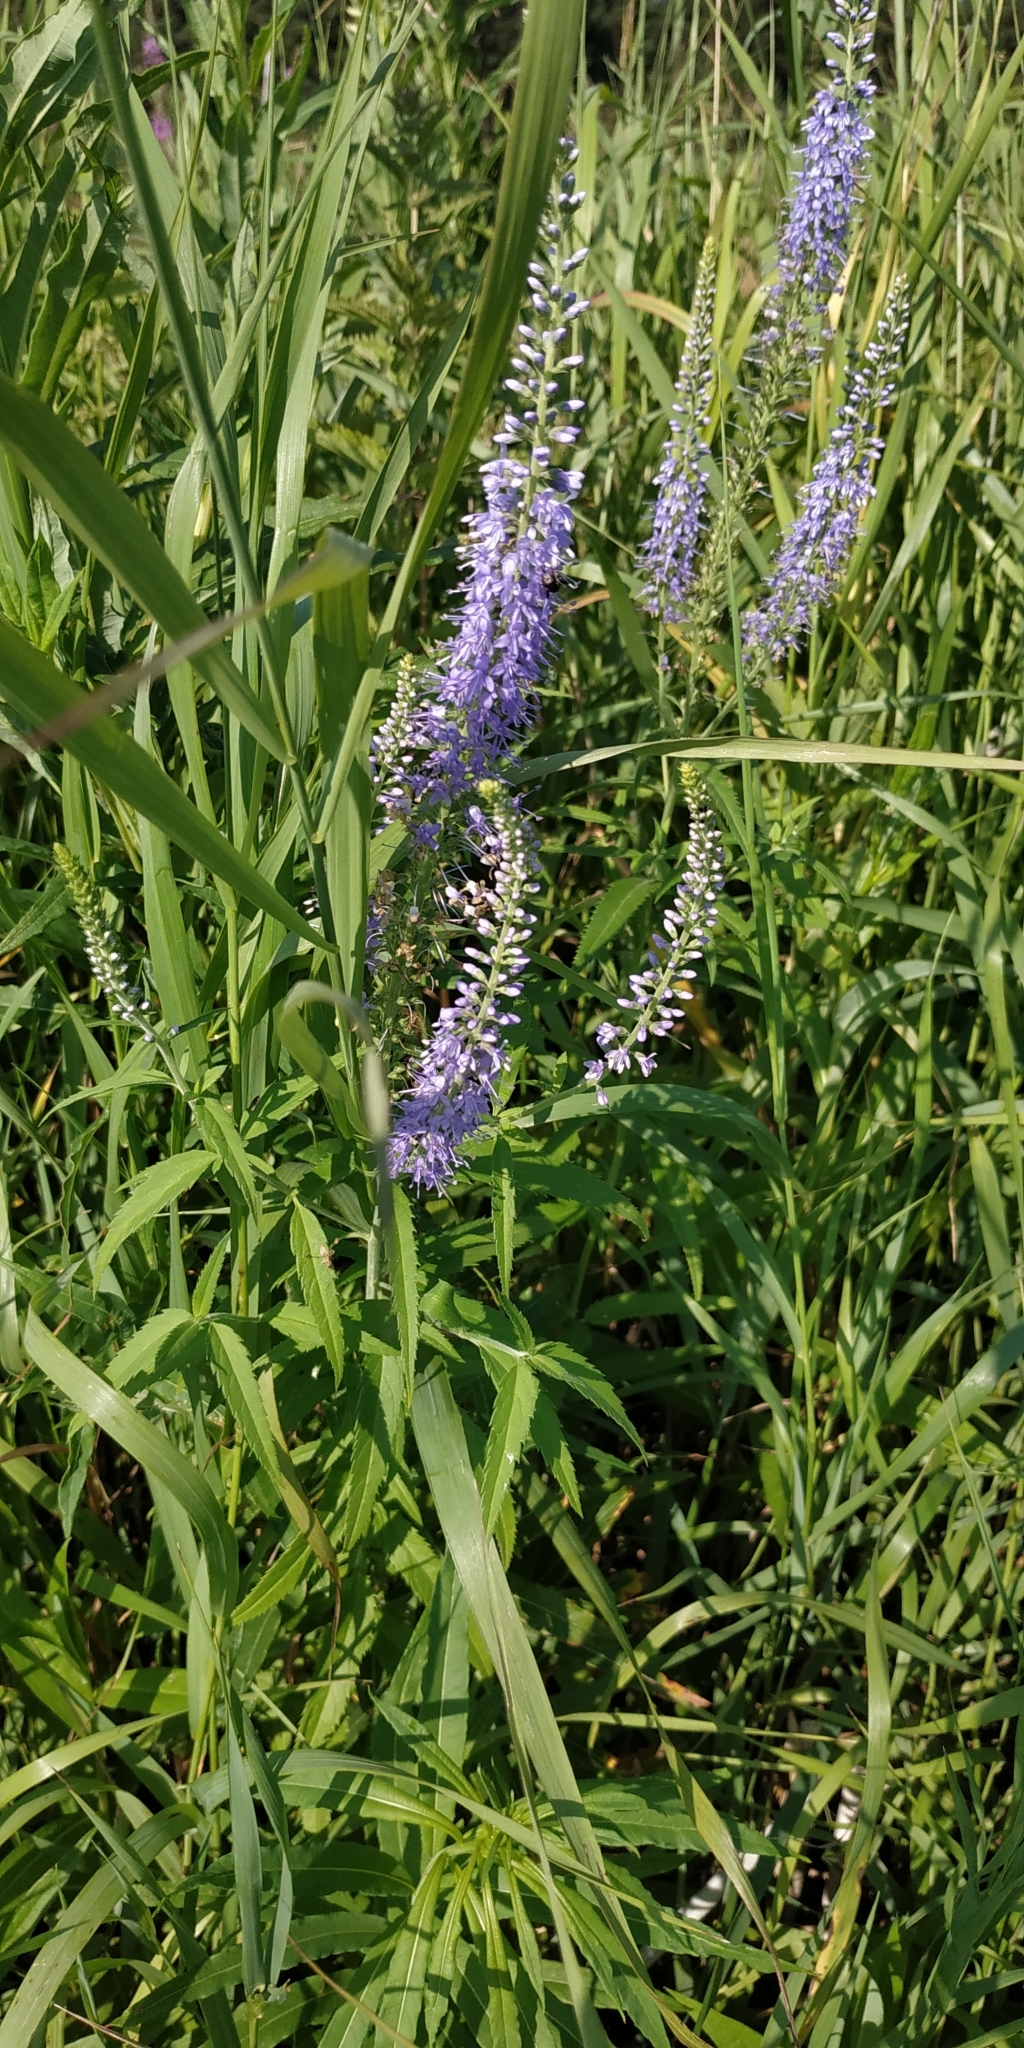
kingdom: Plantae
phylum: Tracheophyta
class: Magnoliopsida
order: Lamiales
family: Plantaginaceae
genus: Veronica
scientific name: Veronica longifolia
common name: Garden speedwell
